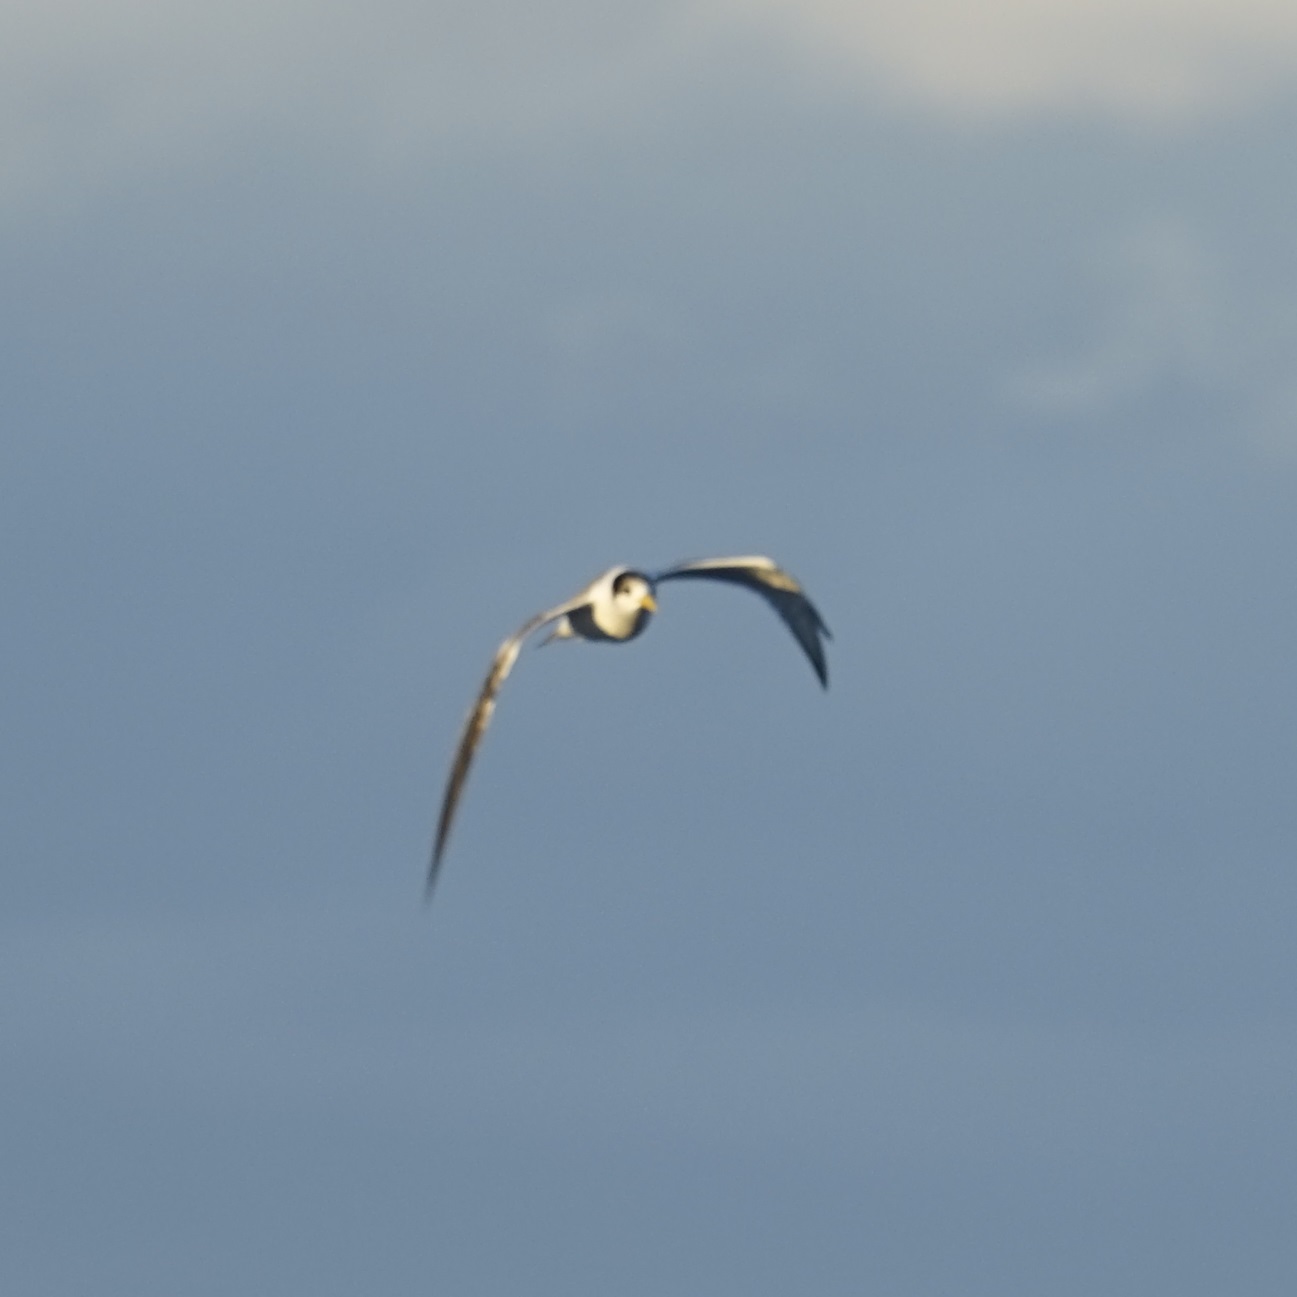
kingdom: Animalia
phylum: Chordata
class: Aves
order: Charadriiformes
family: Laridae
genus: Thalasseus
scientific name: Thalasseus bergii
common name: Greater crested tern
